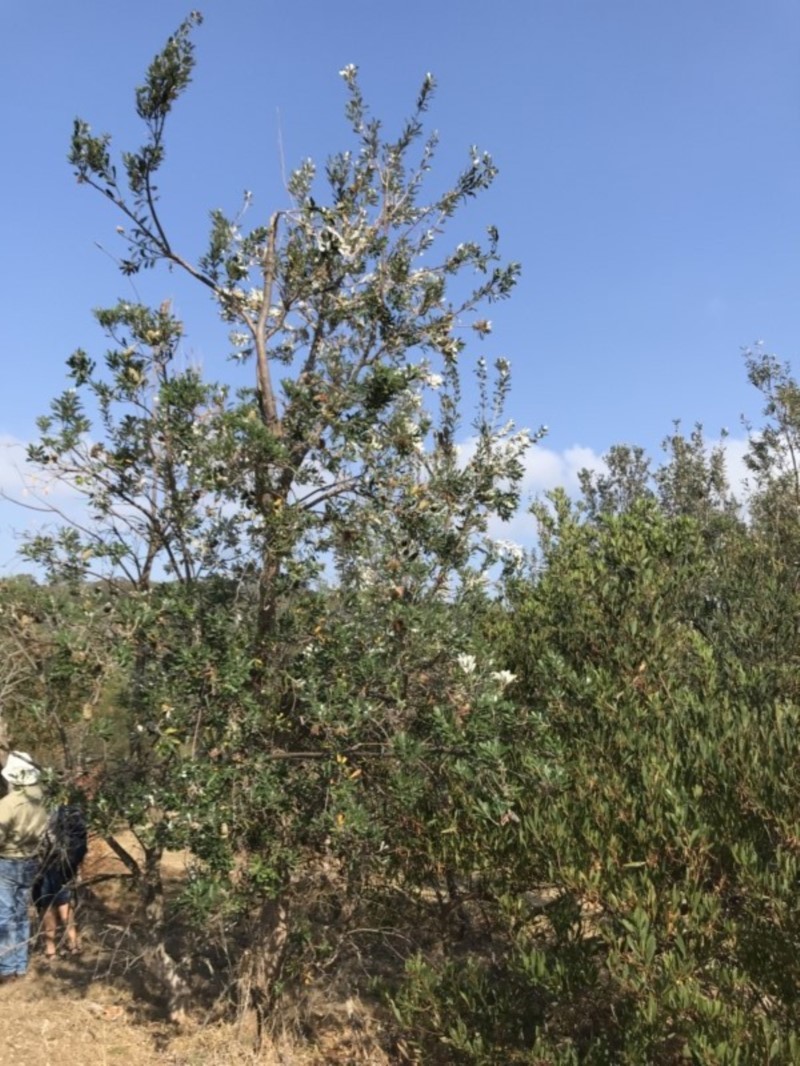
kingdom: Plantae
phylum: Tracheophyta
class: Magnoliopsida
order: Proteales
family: Proteaceae
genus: Banksia
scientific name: Banksia integrifolia
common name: White-honeysuckle
